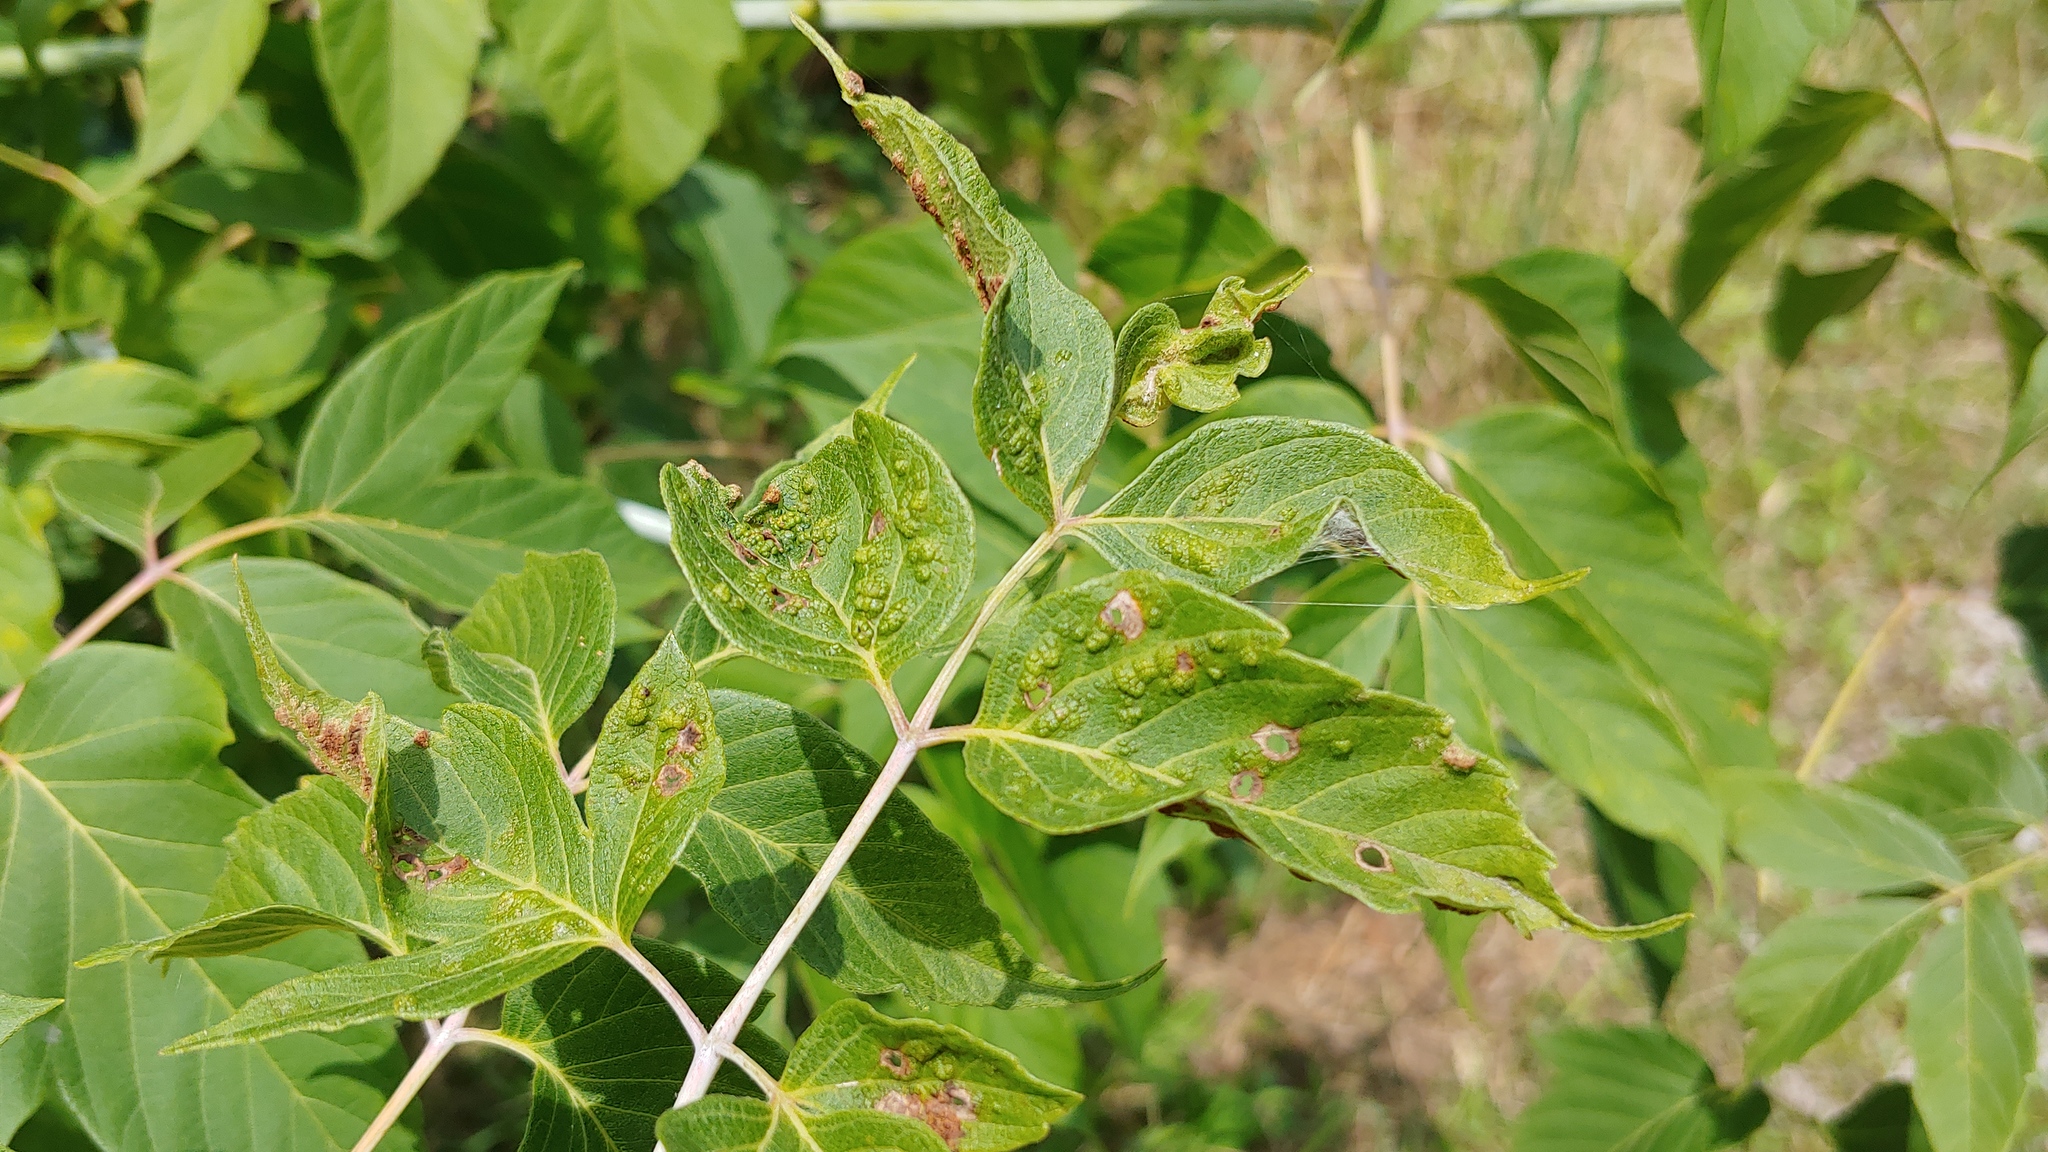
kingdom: Animalia
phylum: Arthropoda
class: Arachnida
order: Trombidiformes
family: Eriophyidae
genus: Aceria
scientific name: Aceria
